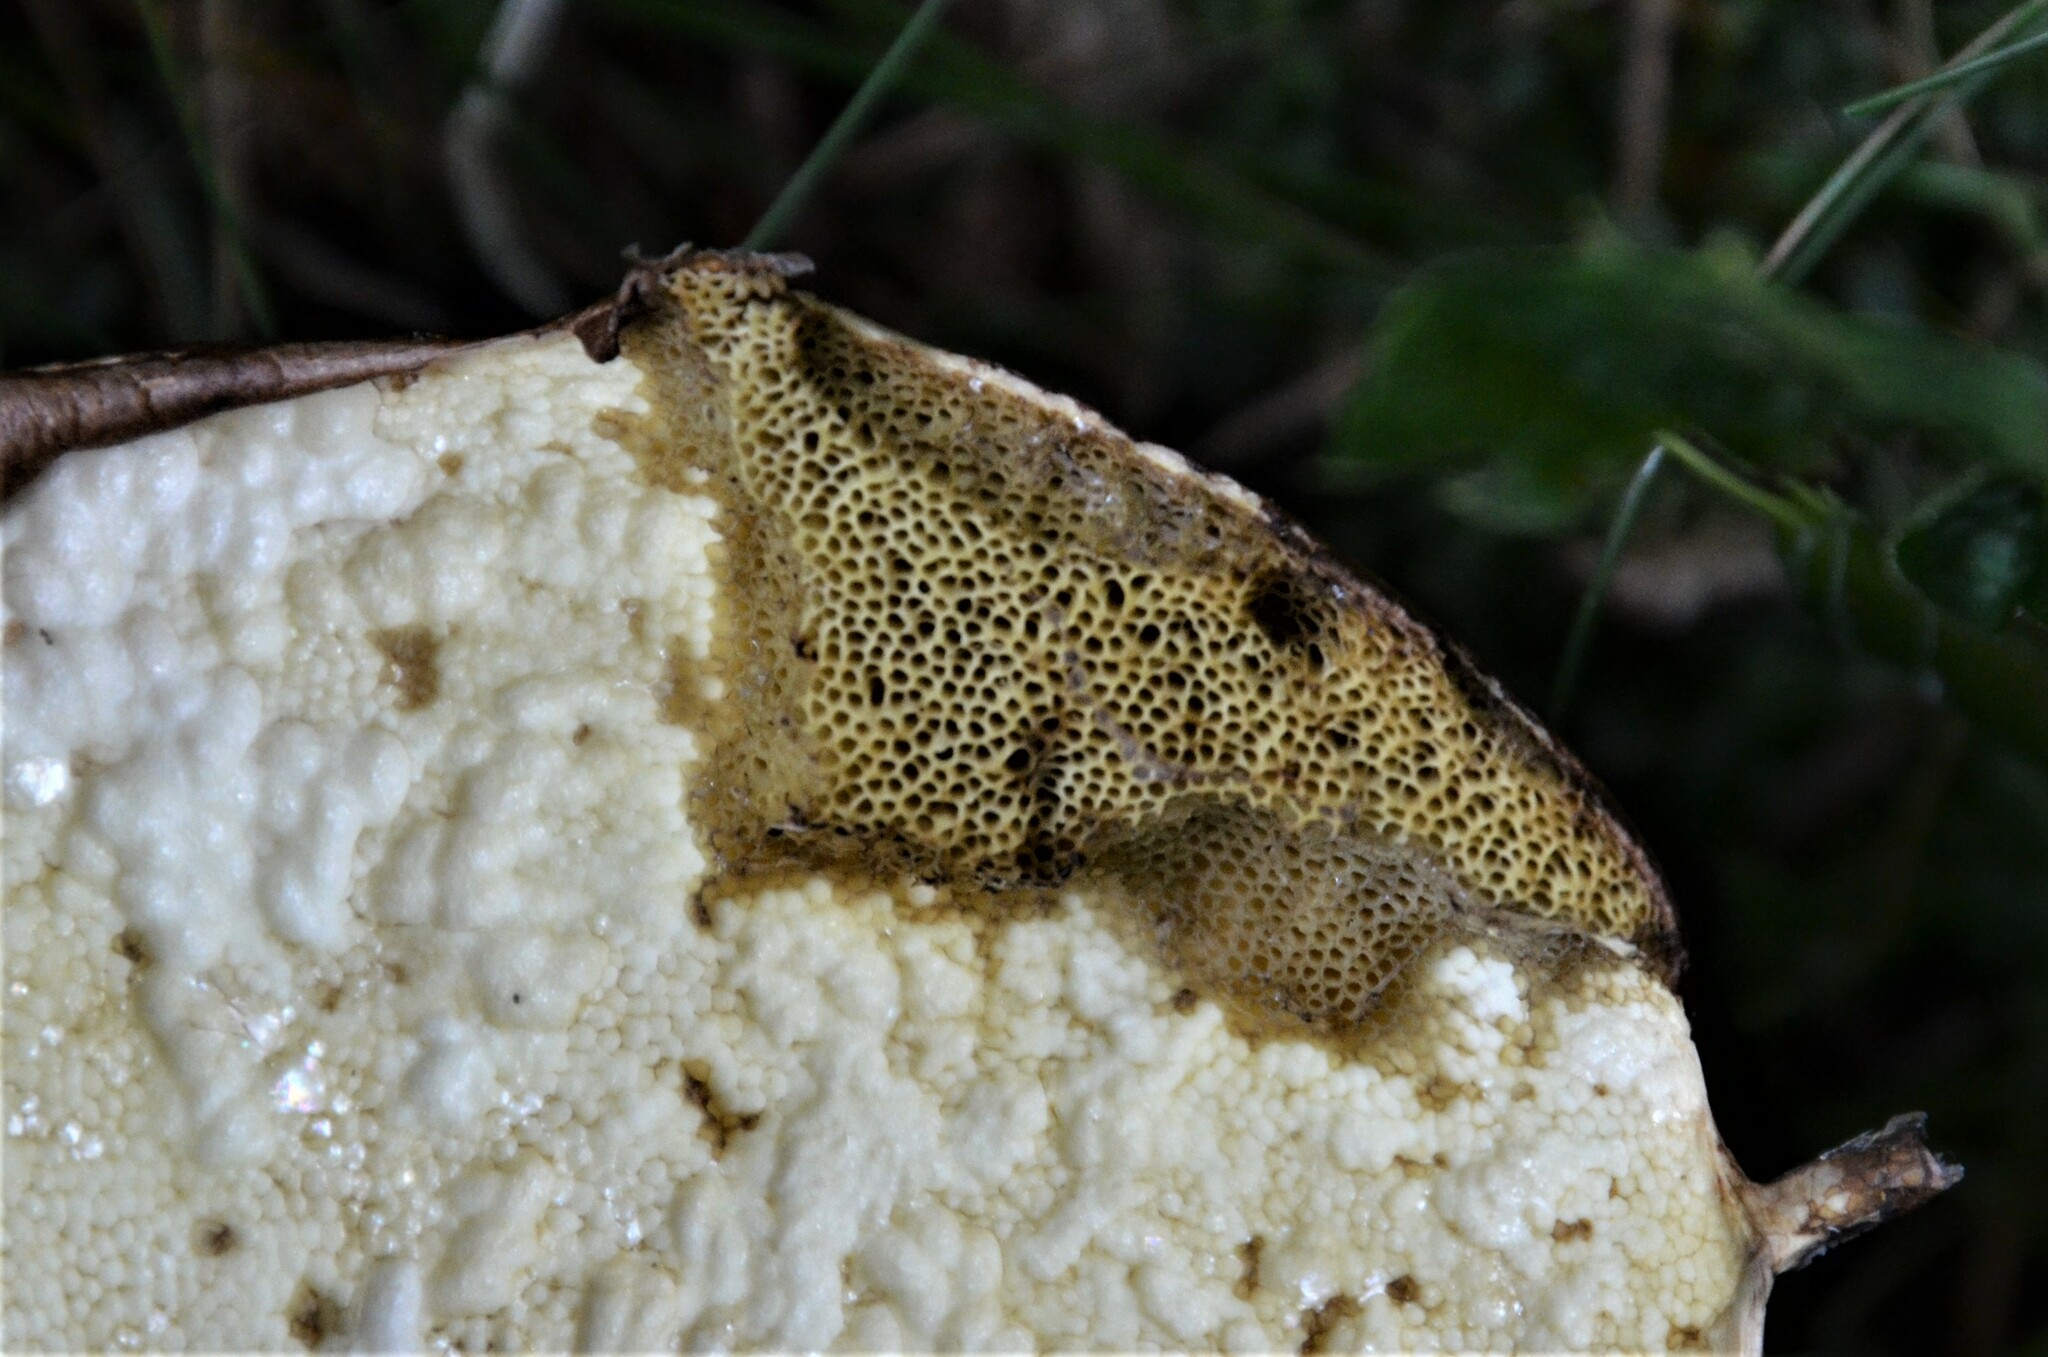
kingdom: Fungi
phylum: Basidiomycota
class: Agaricomycetes
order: Boletales
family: Boletaceae
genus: Imleria
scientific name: Imleria badia
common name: Bay bolete
